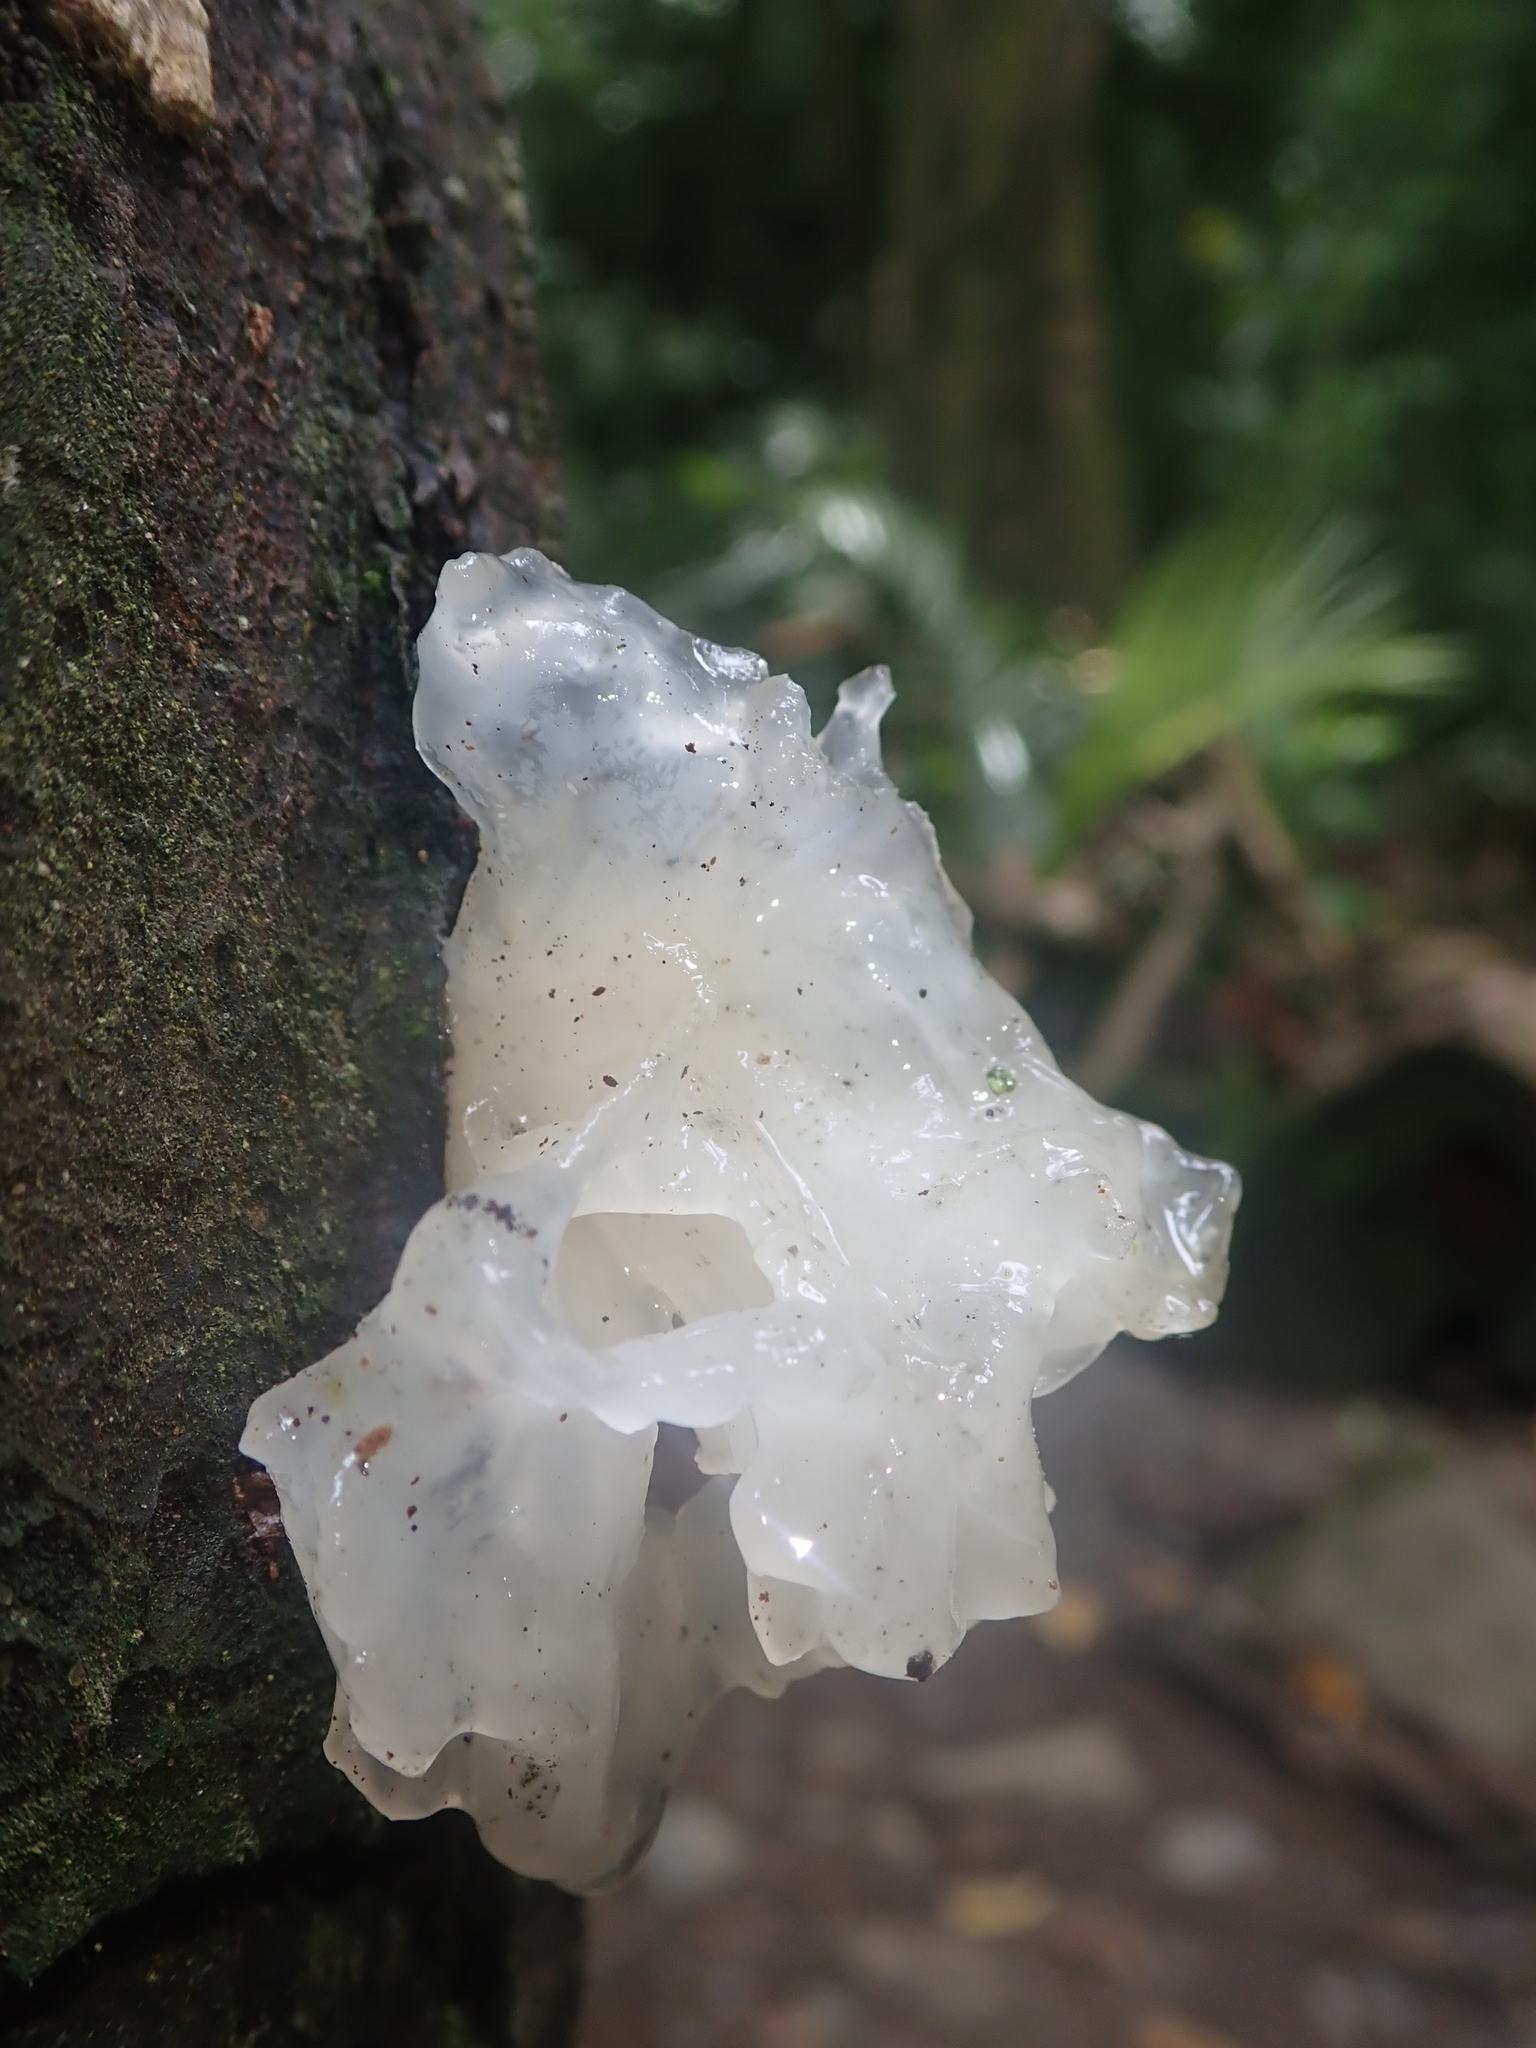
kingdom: Fungi
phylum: Basidiomycota
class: Tremellomycetes
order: Tremellales
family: Tremellaceae
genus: Tremella
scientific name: Tremella fuciformis
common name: Snow fungus
